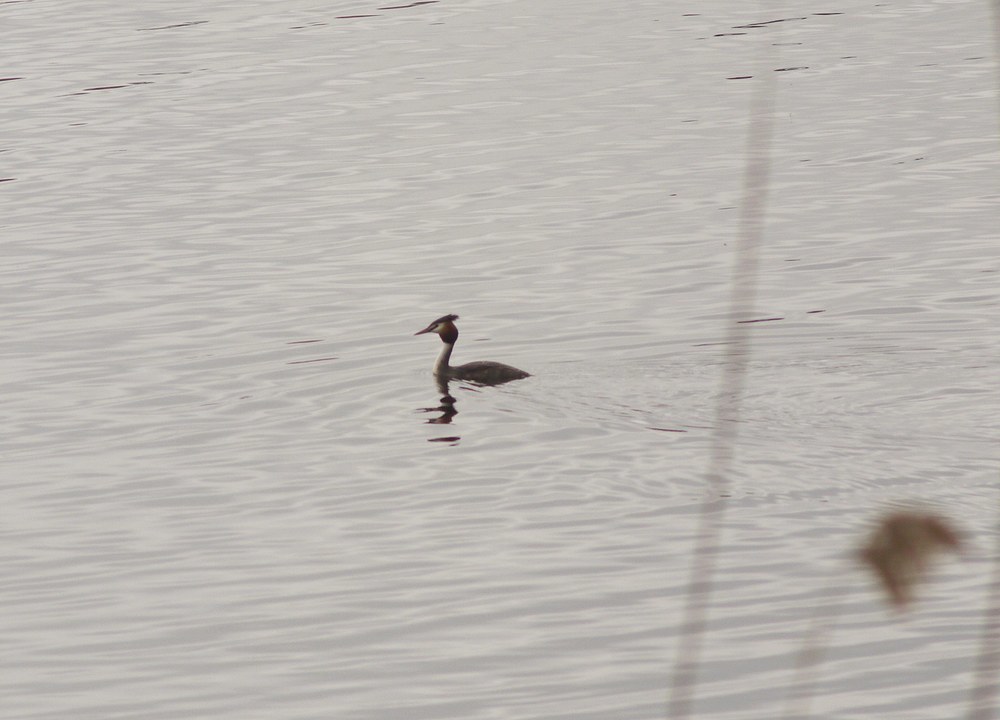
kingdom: Animalia
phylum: Chordata
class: Aves
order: Podicipediformes
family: Podicipedidae
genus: Podiceps
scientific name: Podiceps cristatus
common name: Great crested grebe
